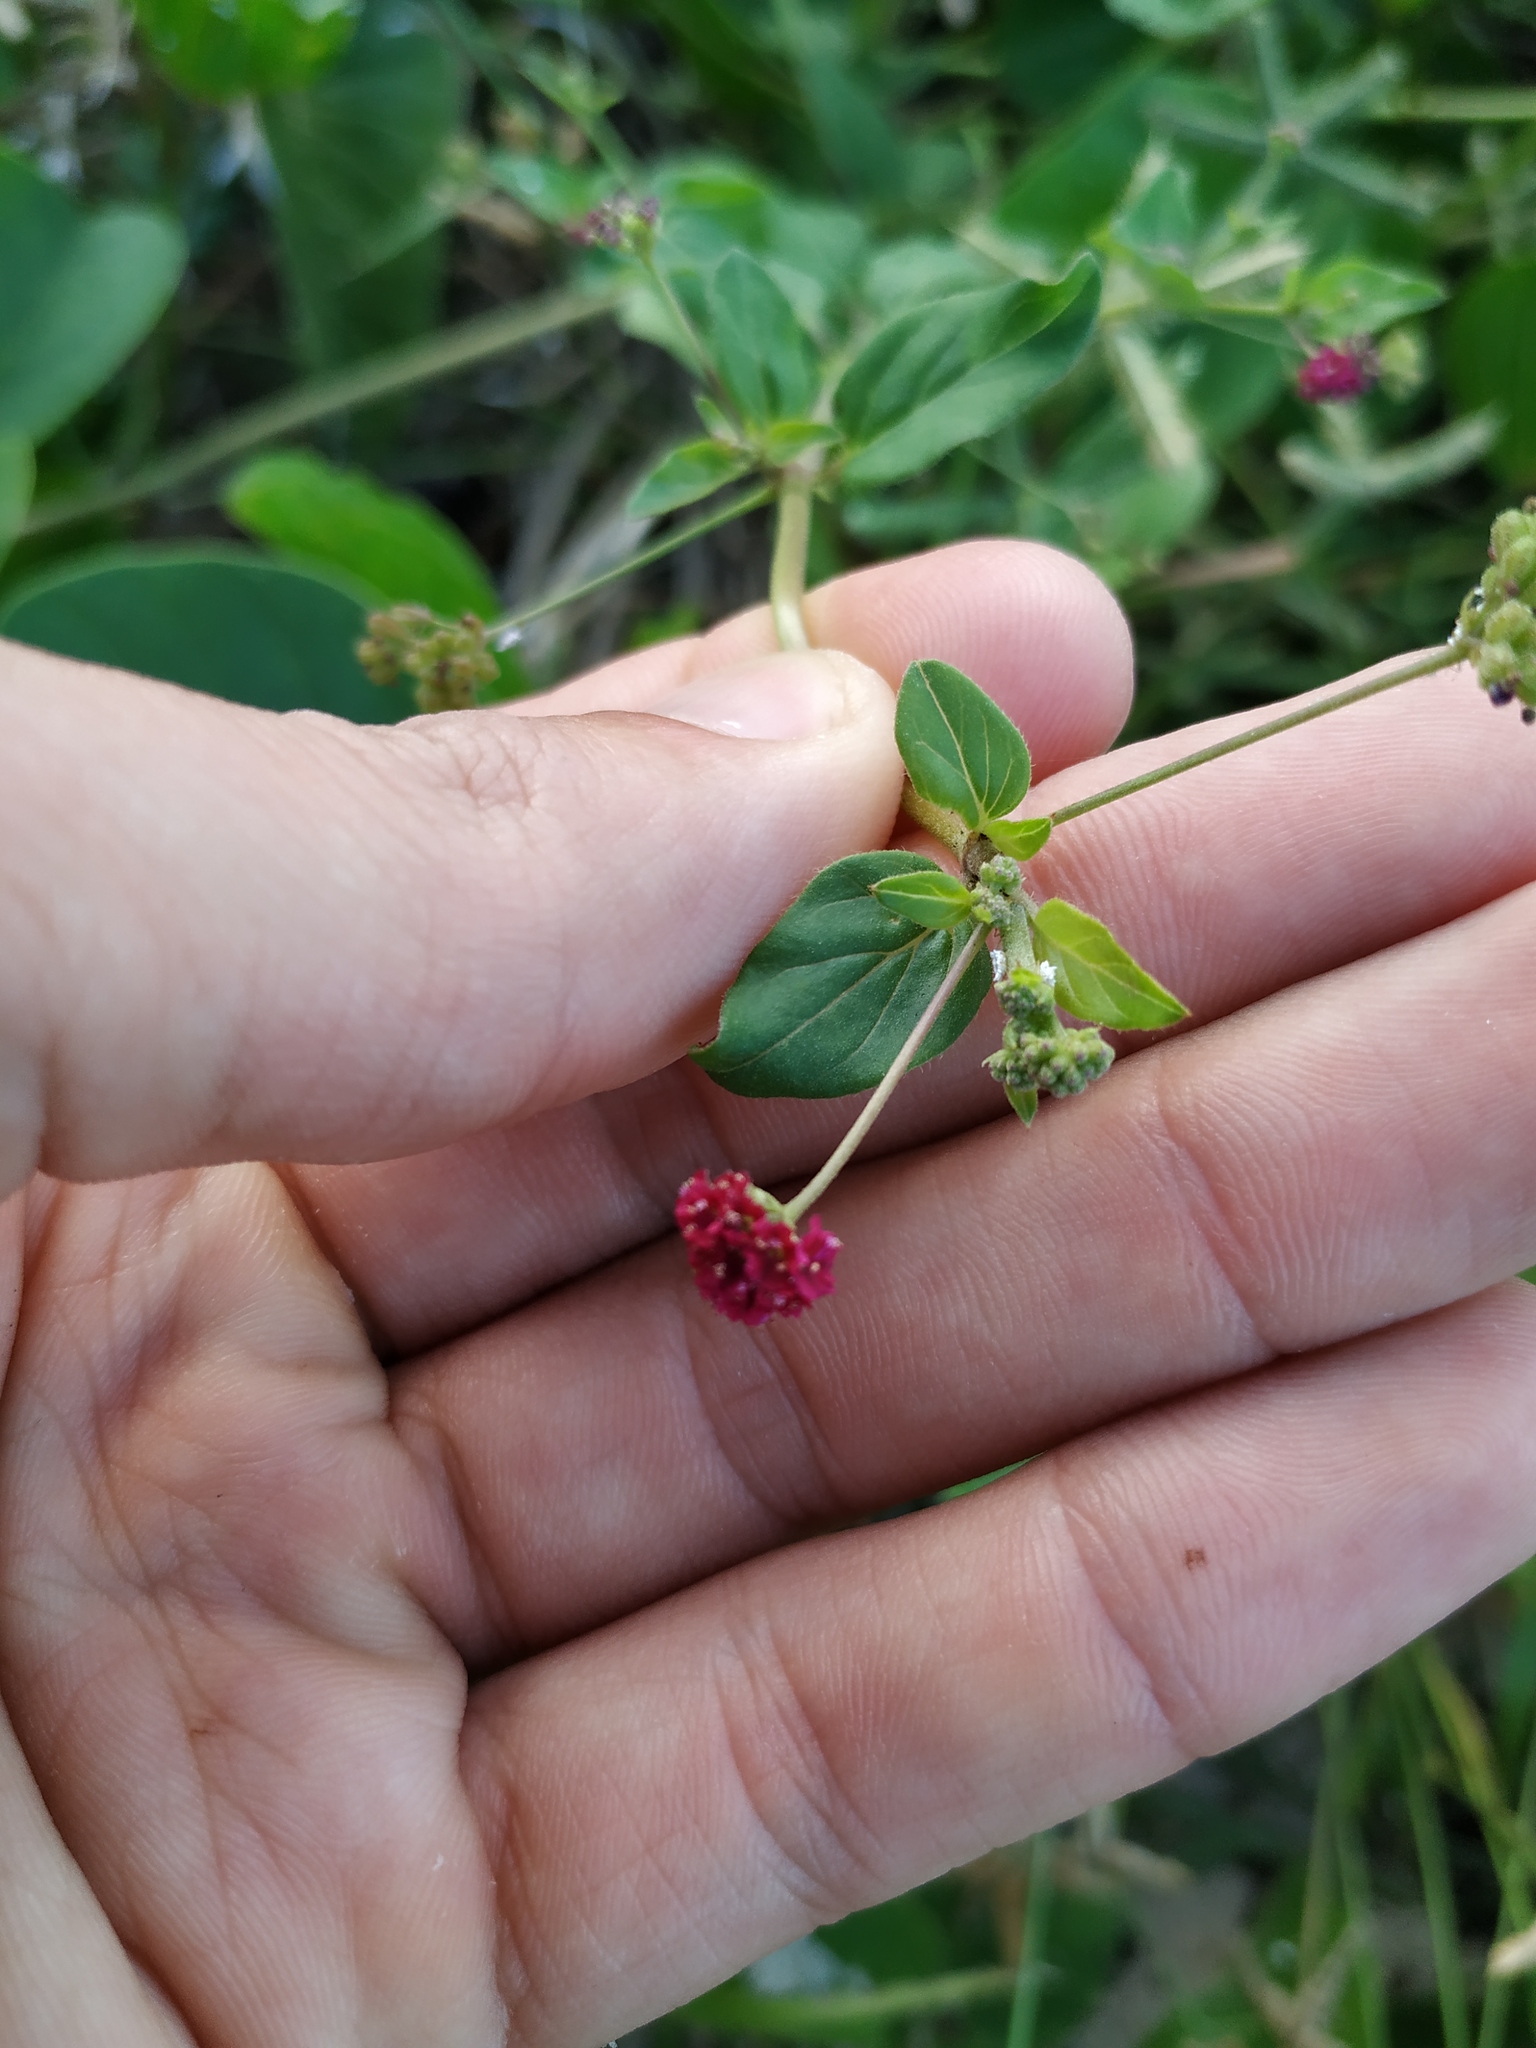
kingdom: Plantae
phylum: Tracheophyta
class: Magnoliopsida
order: Caryophyllales
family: Nyctaginaceae
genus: Boerhavia
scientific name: Boerhavia coccinea
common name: Scarlet spiderling
